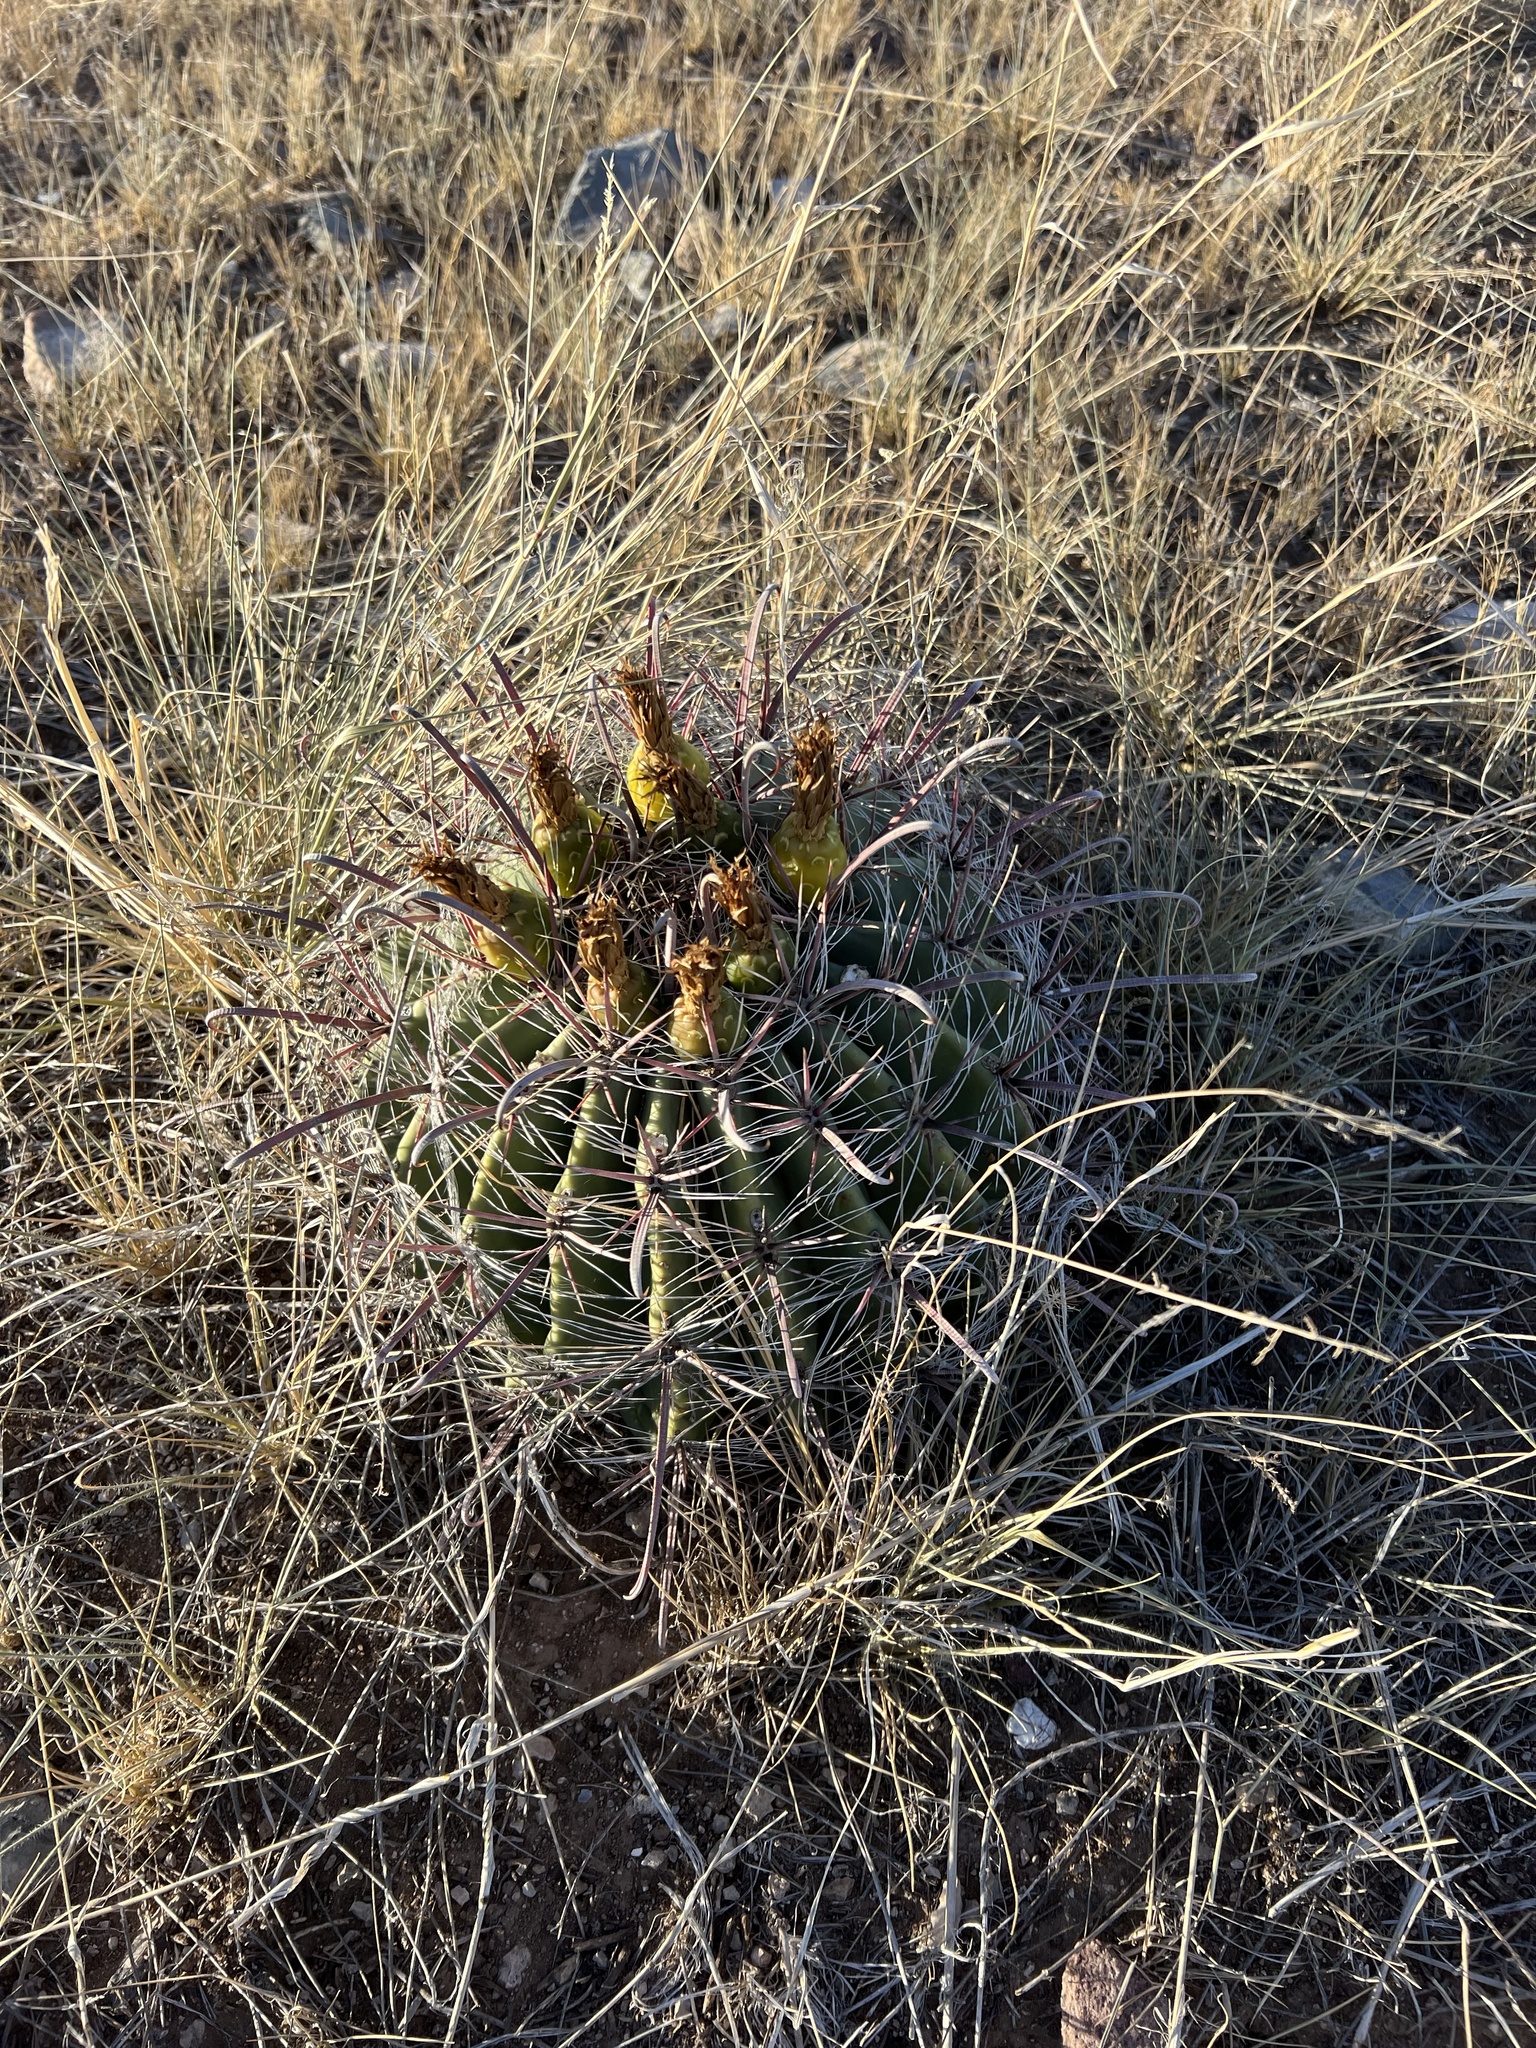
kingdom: Plantae
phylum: Tracheophyta
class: Magnoliopsida
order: Caryophyllales
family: Cactaceae
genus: Ferocactus
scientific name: Ferocactus wislizeni
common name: Candy barrel cactus
